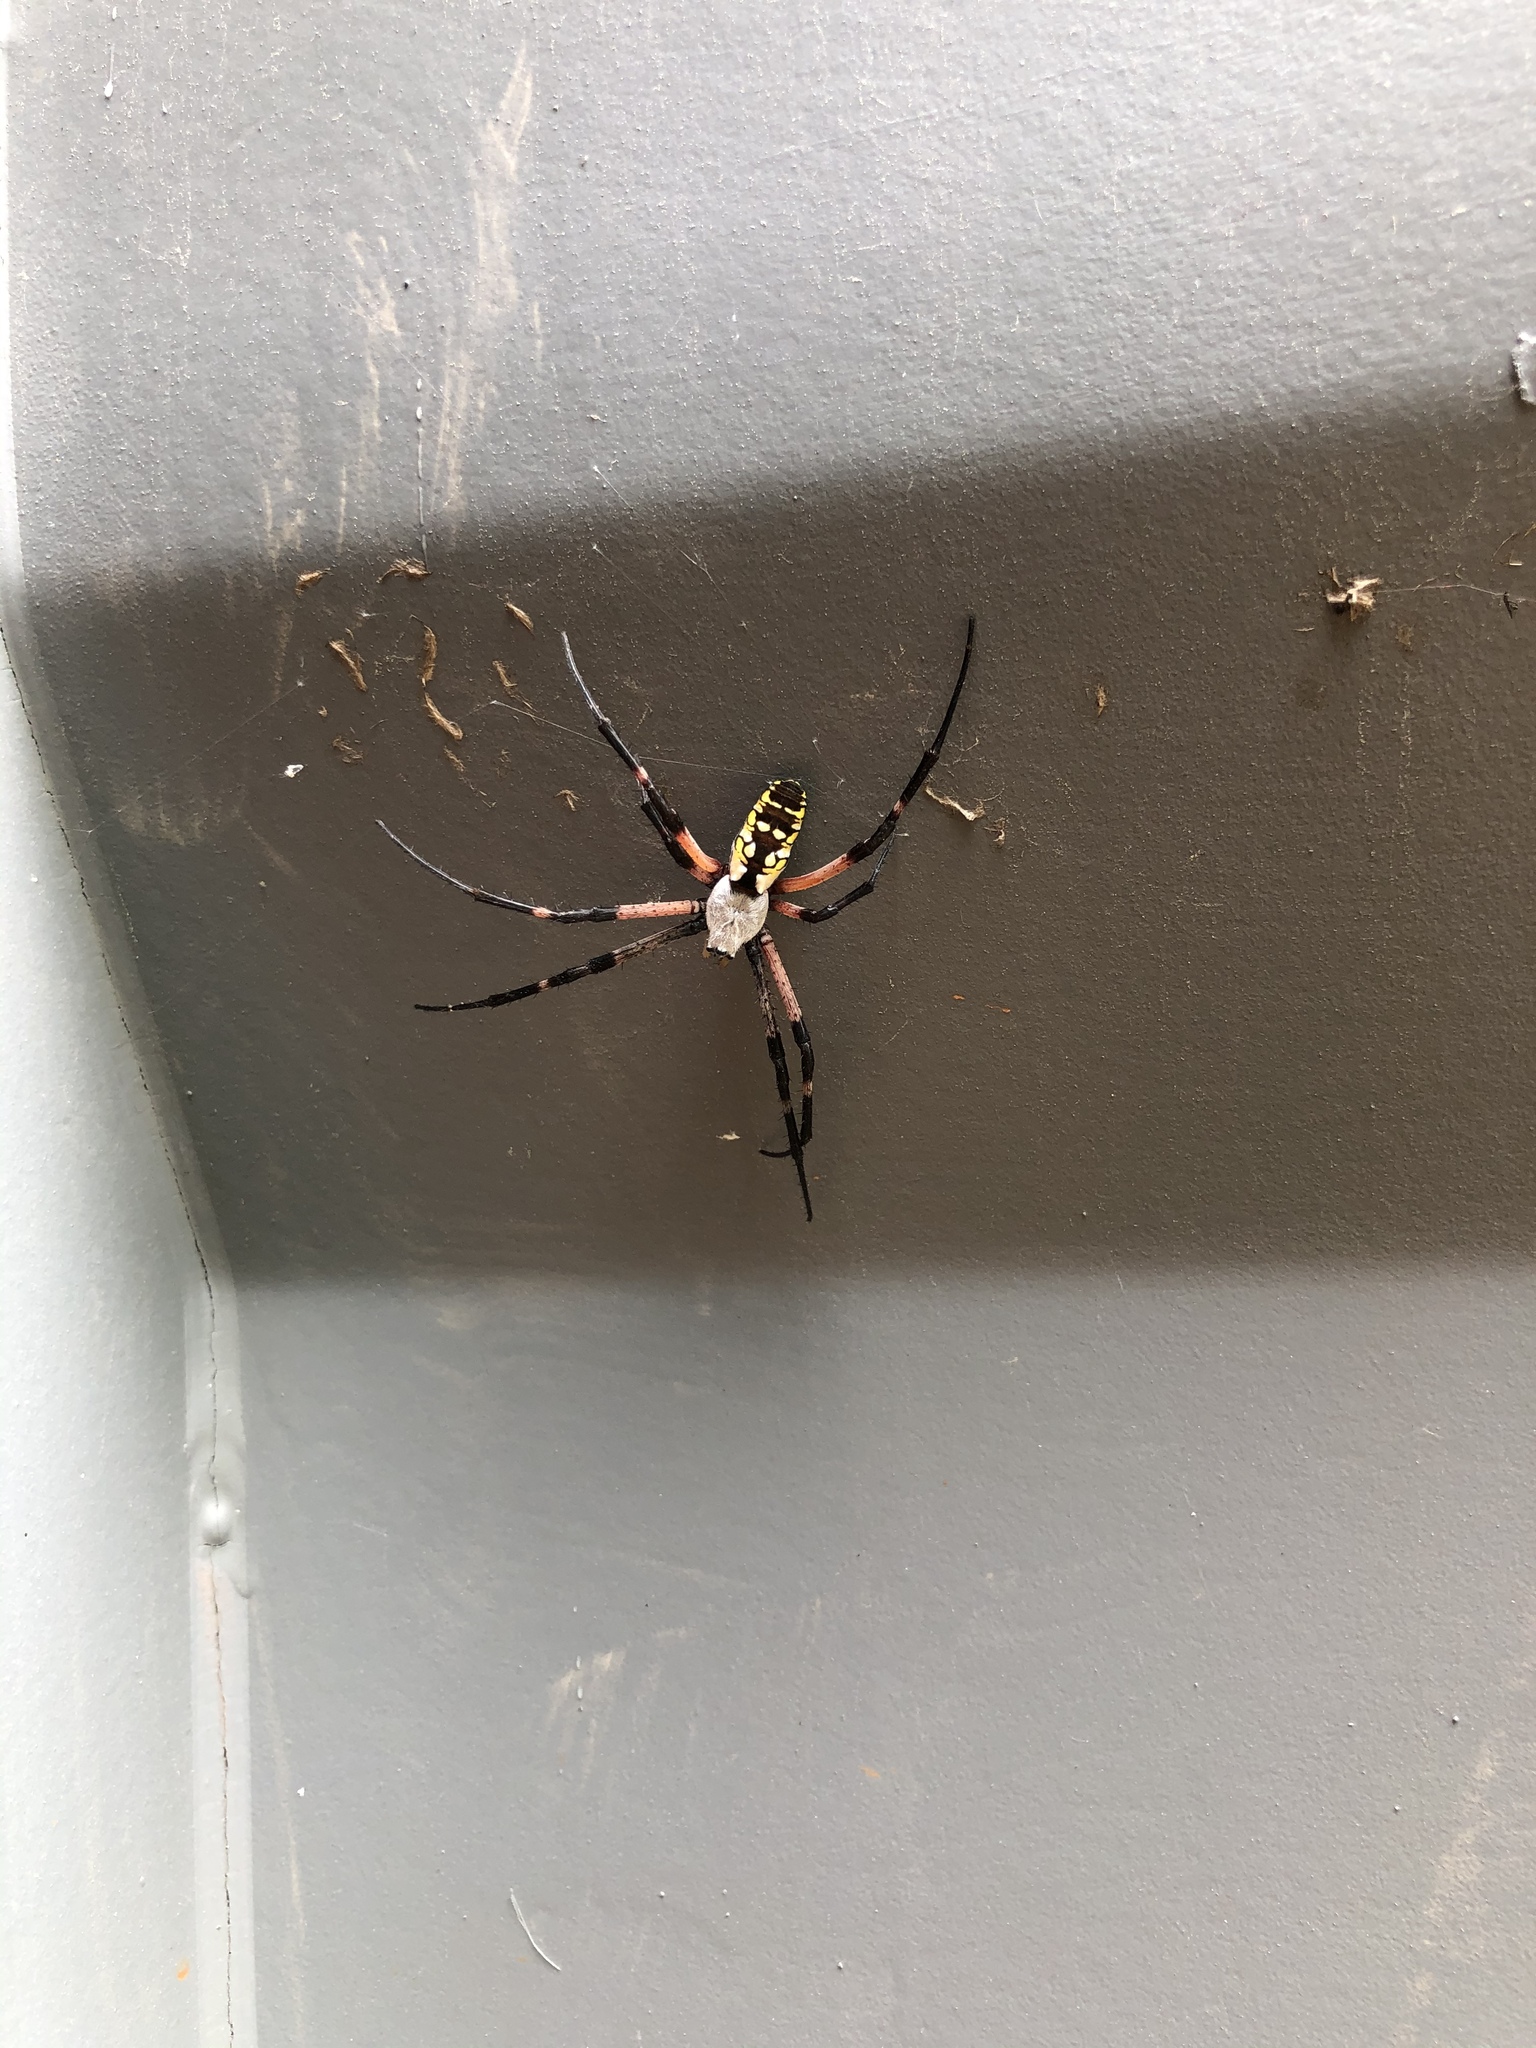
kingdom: Animalia
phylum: Arthropoda
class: Arachnida
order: Araneae
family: Araneidae
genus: Argiope
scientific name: Argiope aurantia
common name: Orb weavers
